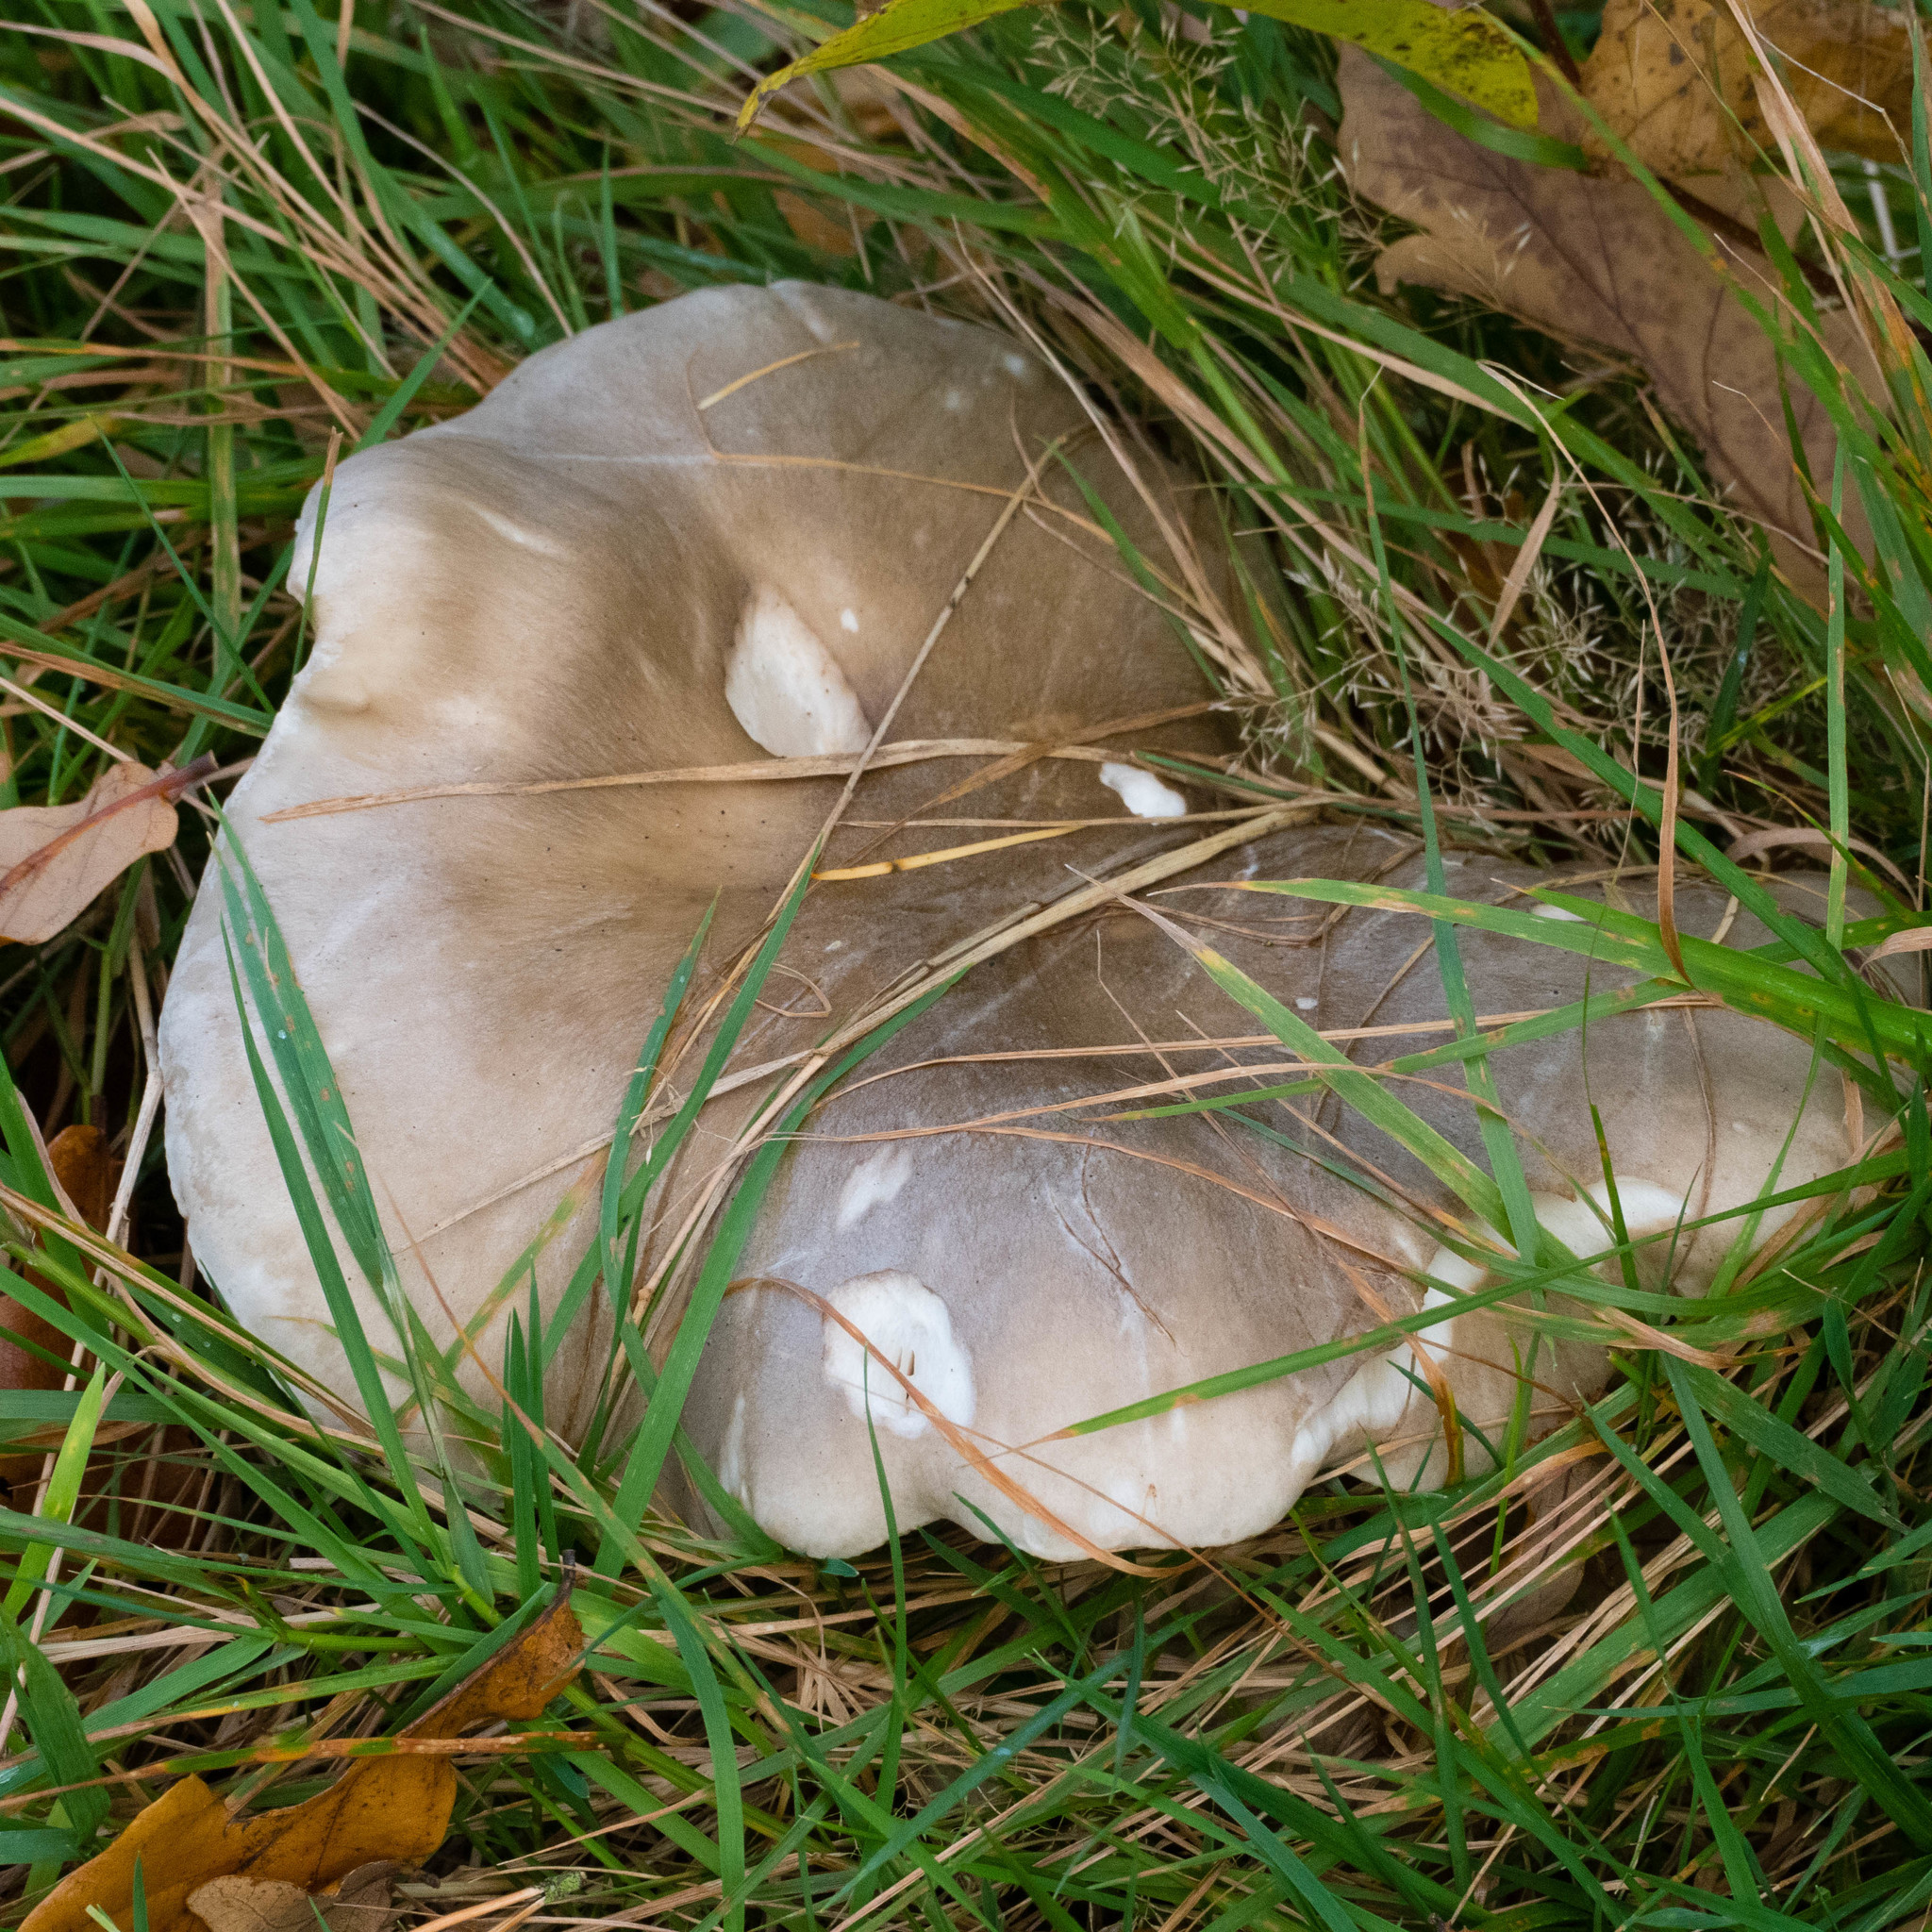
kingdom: Fungi
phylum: Basidiomycota
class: Agaricomycetes
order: Agaricales
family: Tricholomataceae
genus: Clitocybe
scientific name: Clitocybe nebularis
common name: Clouded agaric
